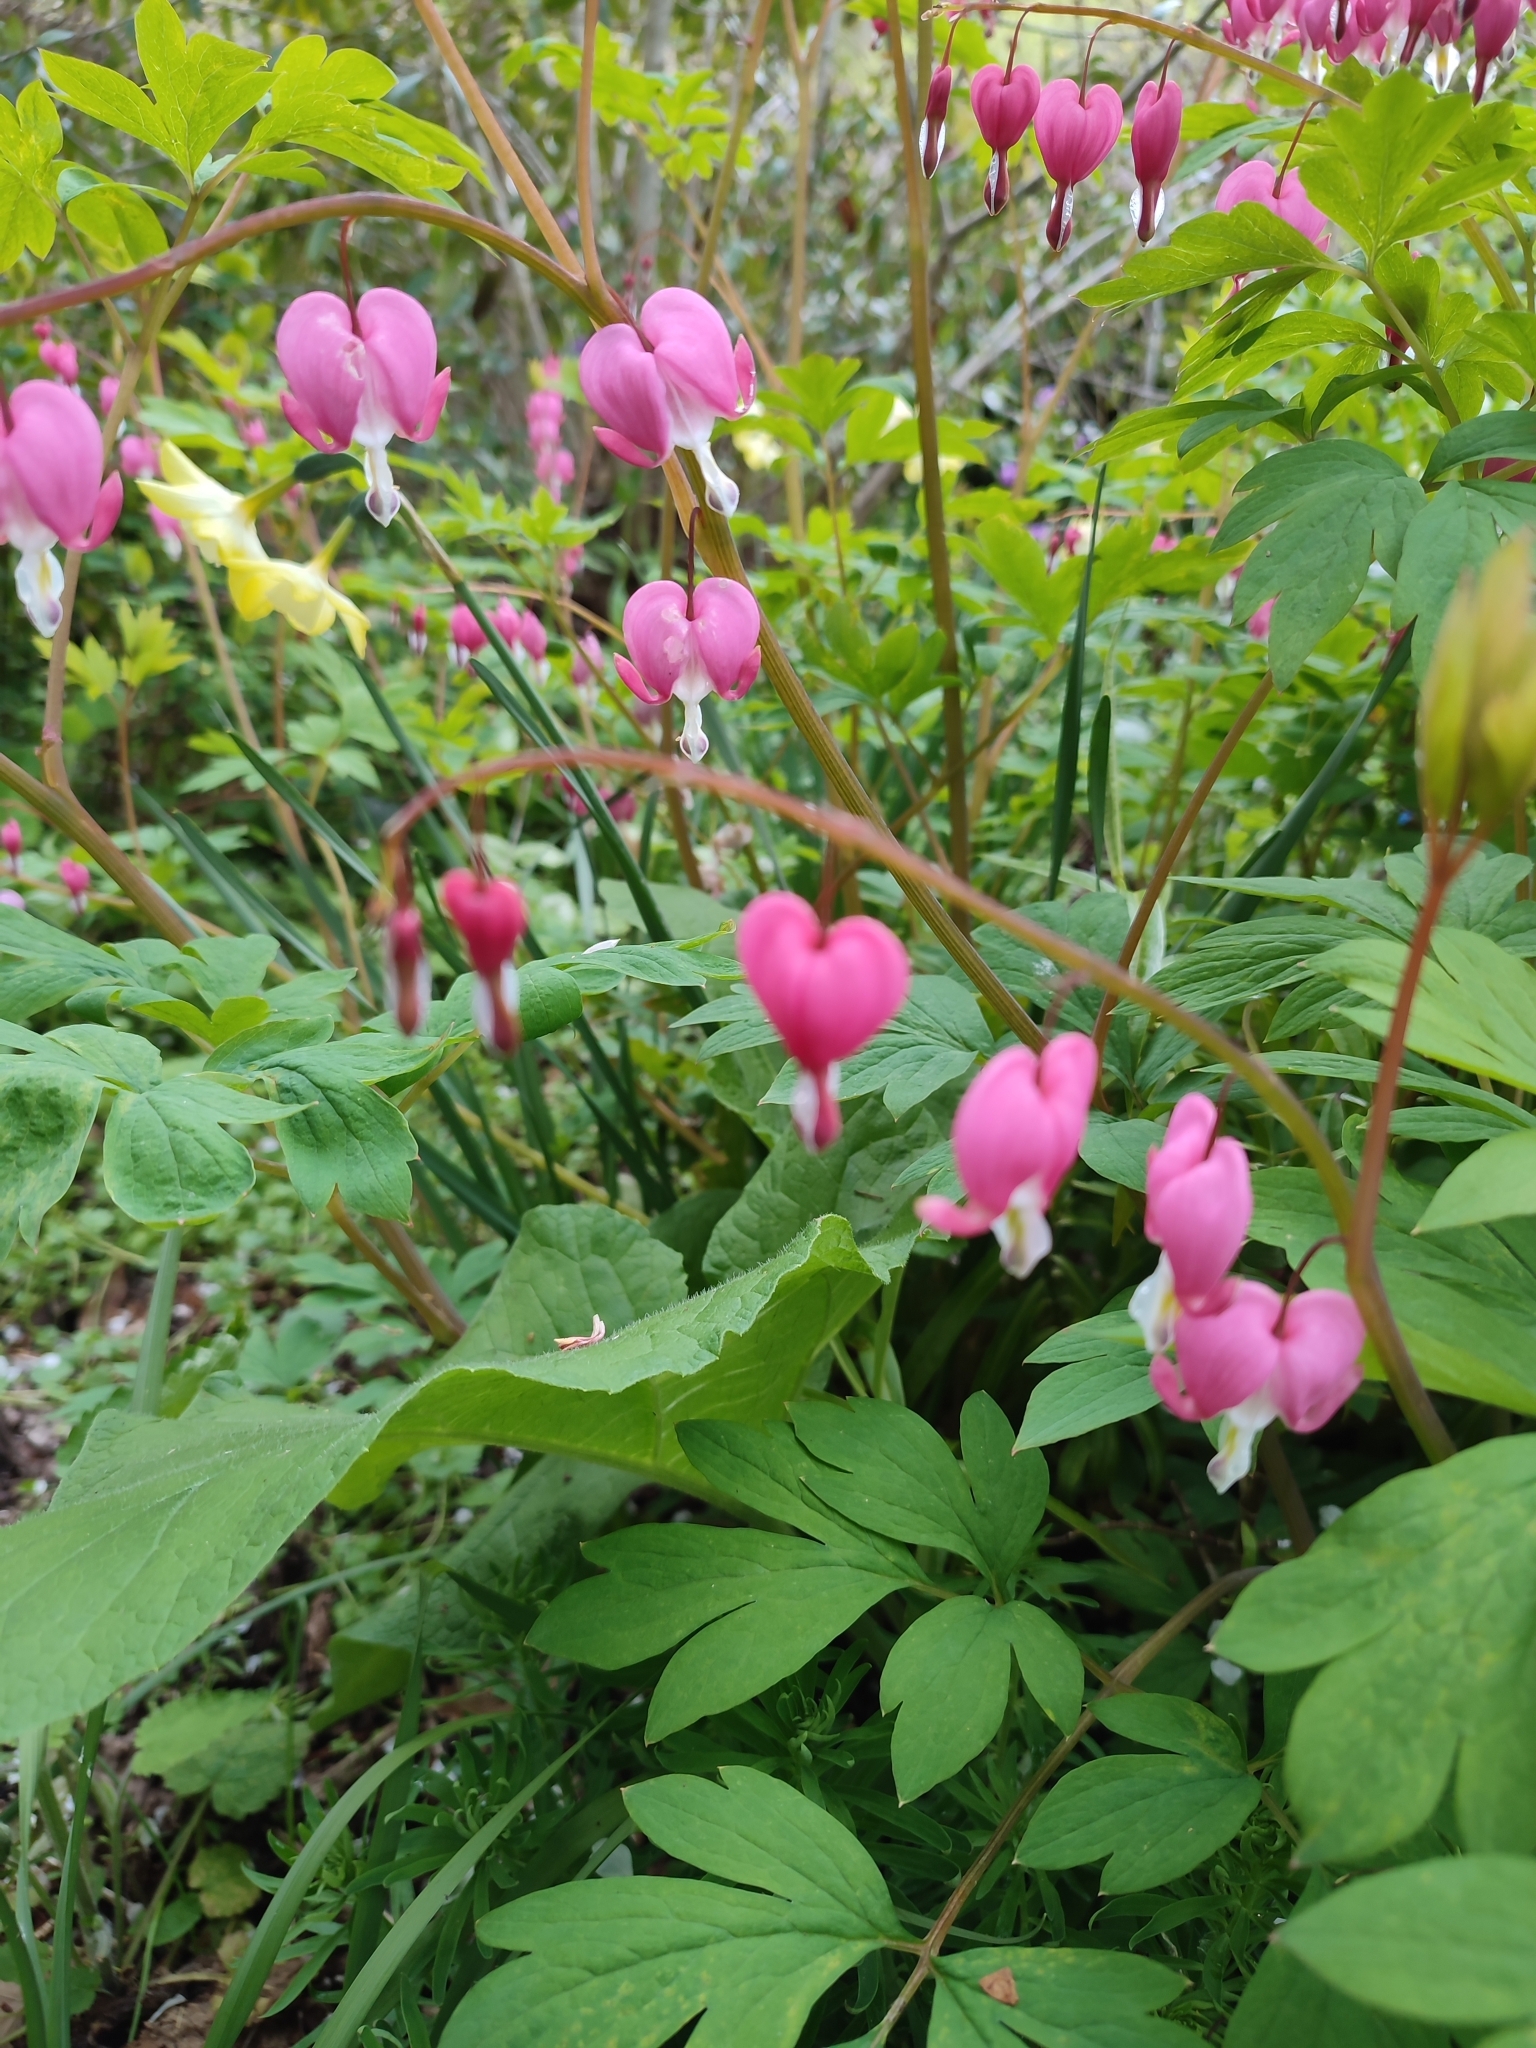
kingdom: Plantae
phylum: Tracheophyta
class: Magnoliopsida
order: Ranunculales
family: Papaveraceae
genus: Lamprocapnos
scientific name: Lamprocapnos spectabilis
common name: Asian bleeding-heart
